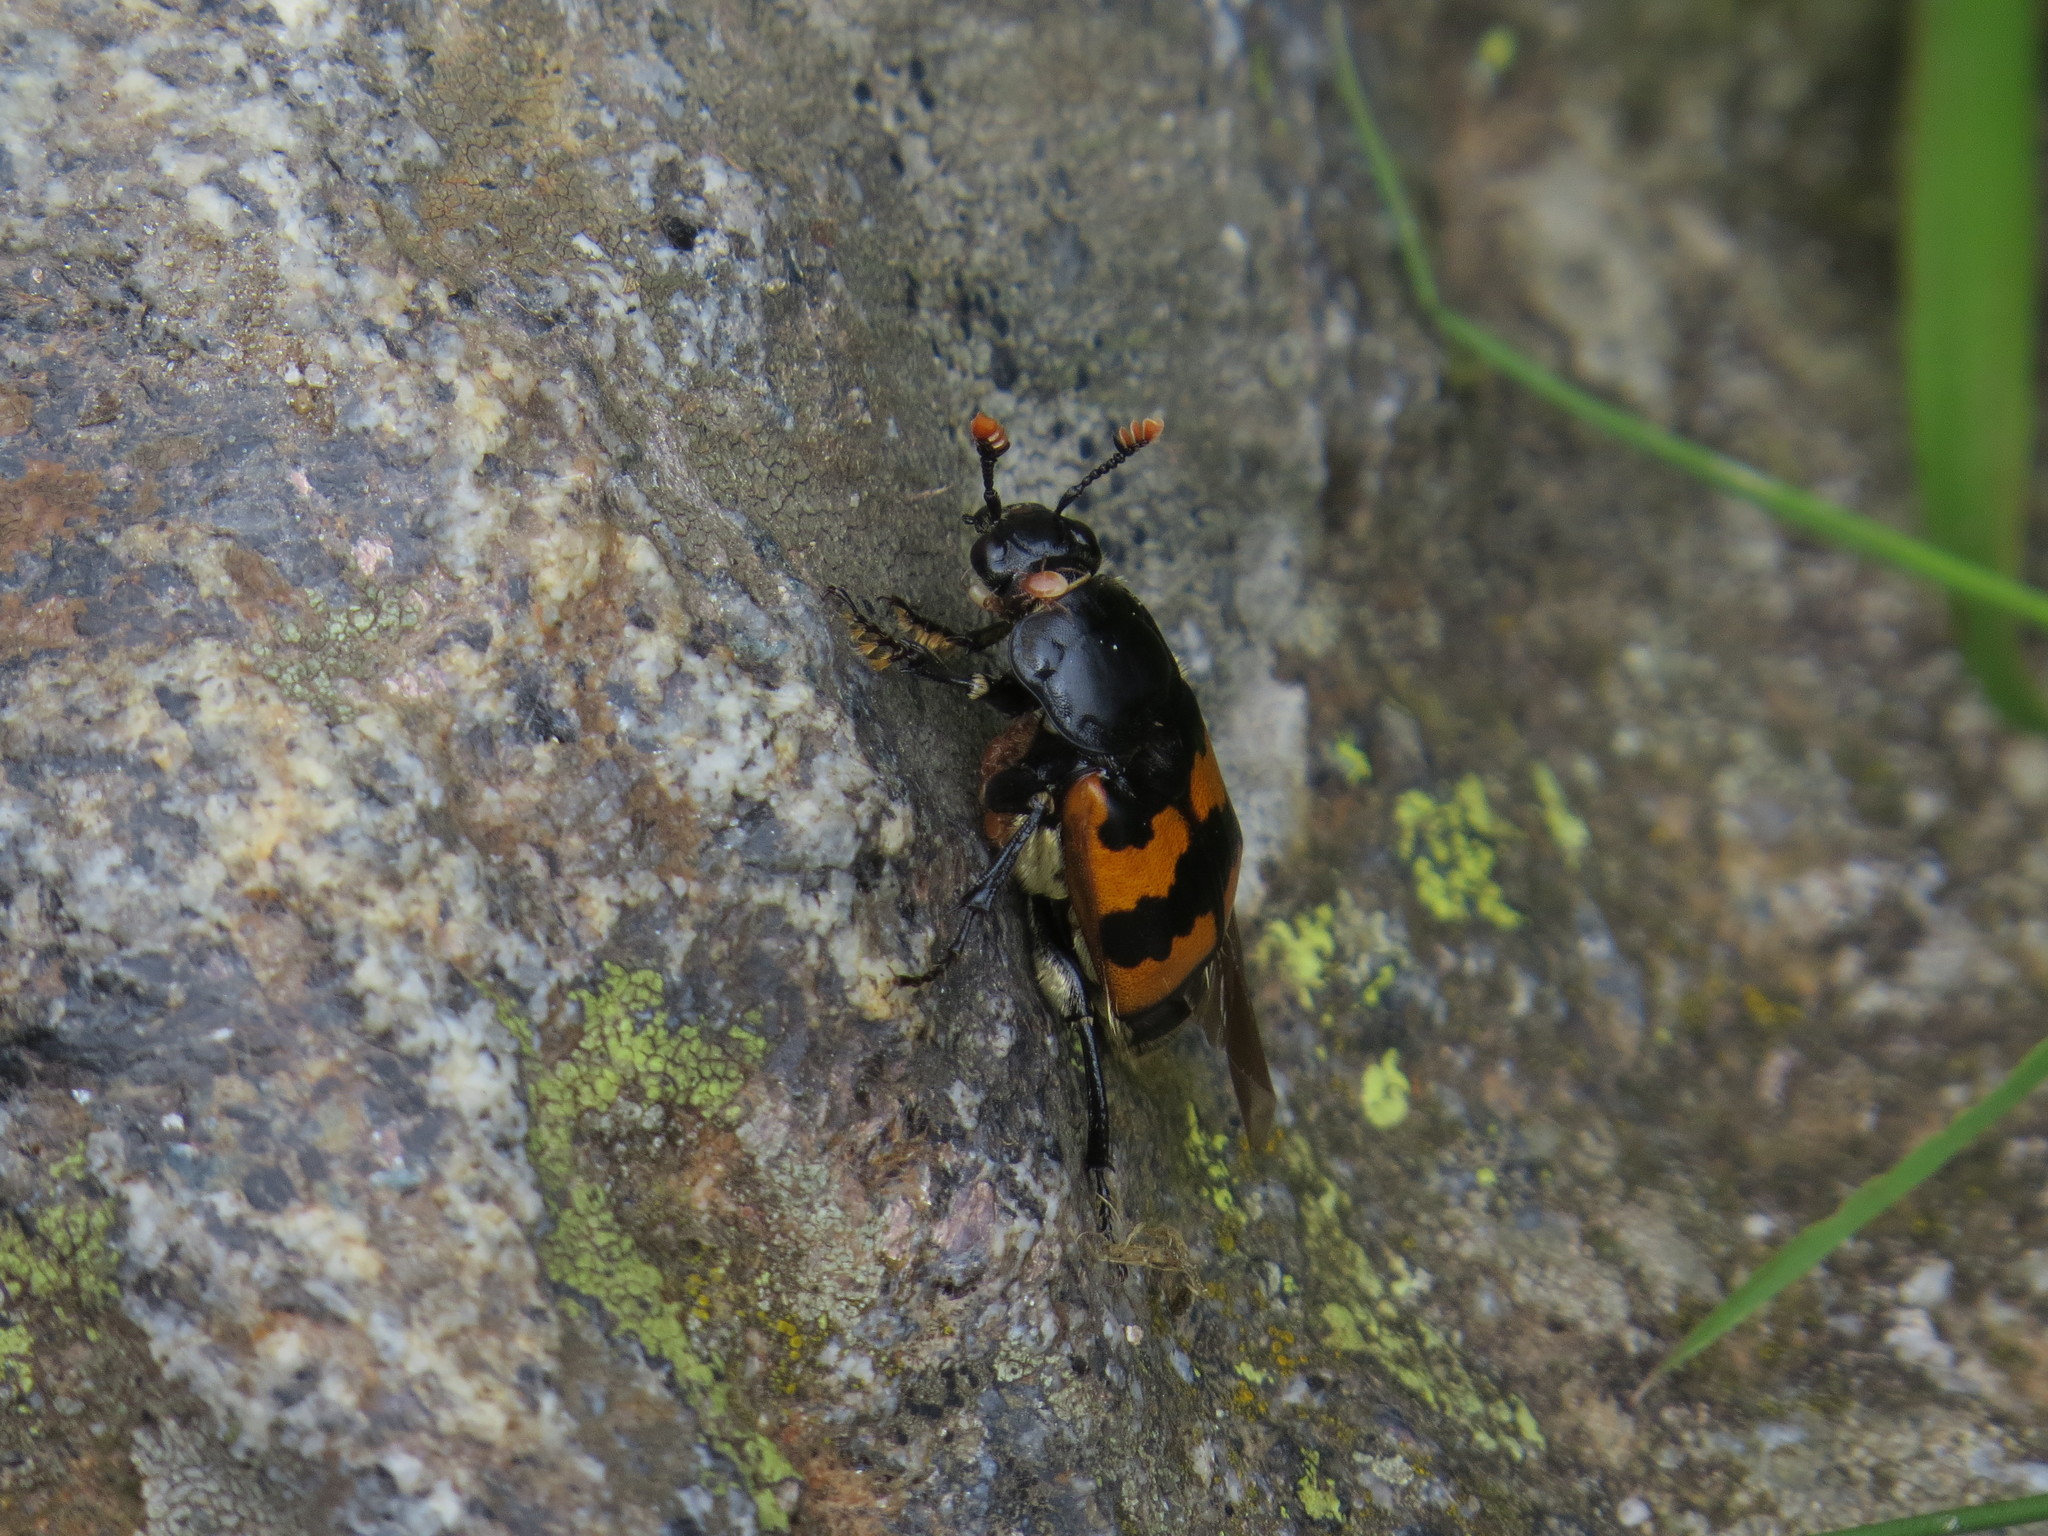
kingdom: Animalia
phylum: Arthropoda
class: Insecta
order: Coleoptera
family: Staphylinidae
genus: Nicrophorus
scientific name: Nicrophorus vespillo
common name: Common burying beetle
